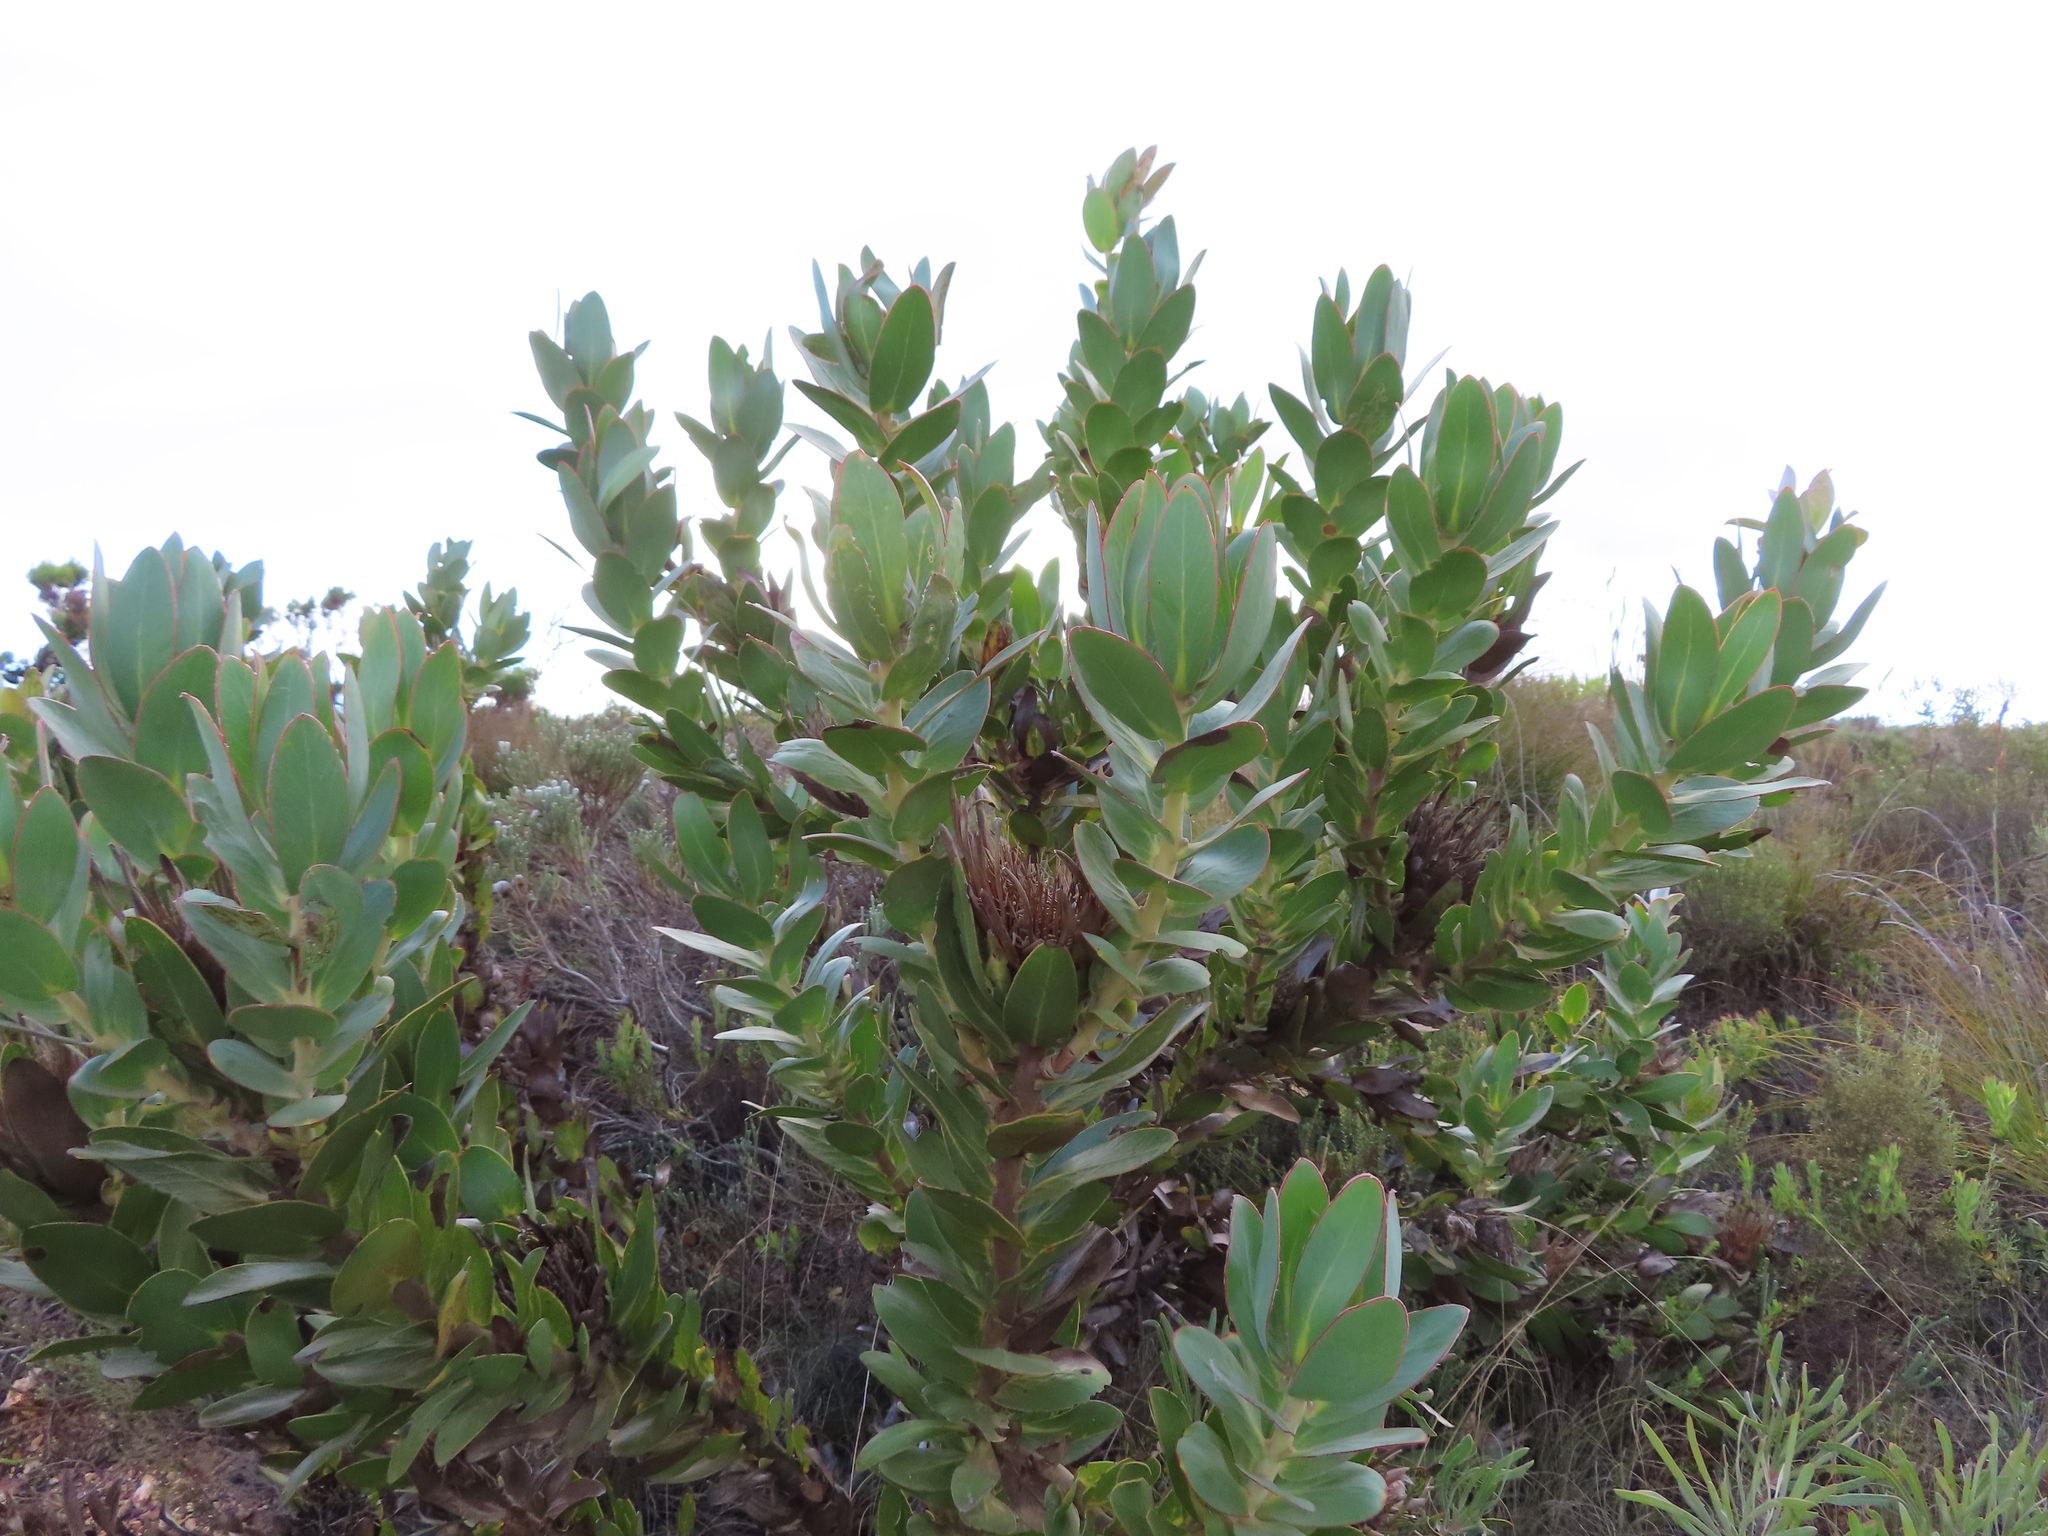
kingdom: Plantae
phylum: Tracheophyta
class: Magnoliopsida
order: Proteales
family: Proteaceae
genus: Protea
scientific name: Protea compacta
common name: Bot river protea
